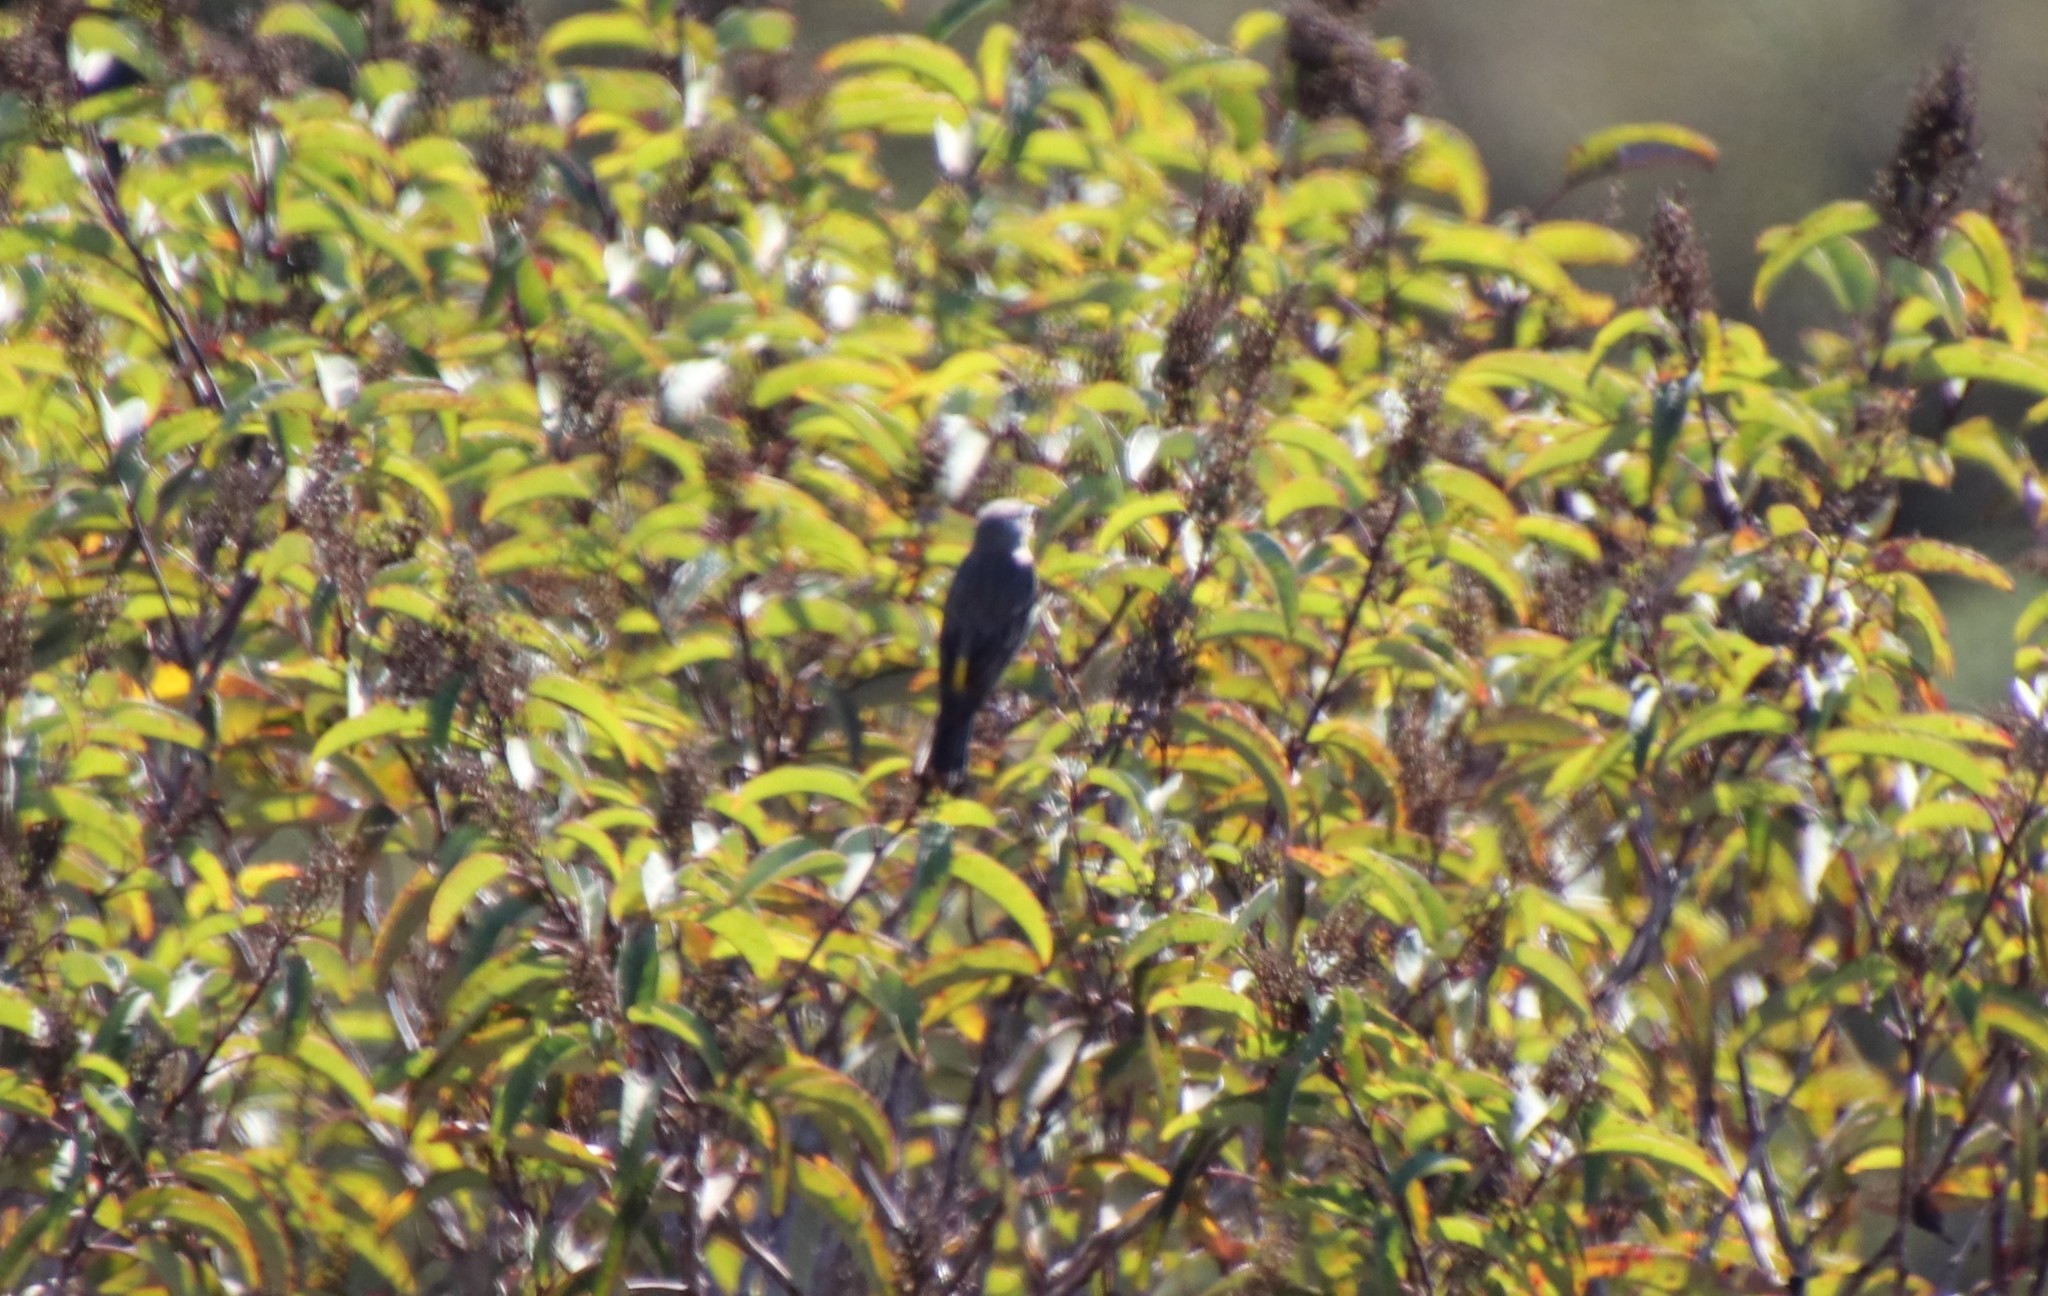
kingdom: Animalia
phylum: Chordata
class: Aves
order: Passeriformes
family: Parulidae
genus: Setophaga
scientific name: Setophaga coronata
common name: Myrtle warbler
